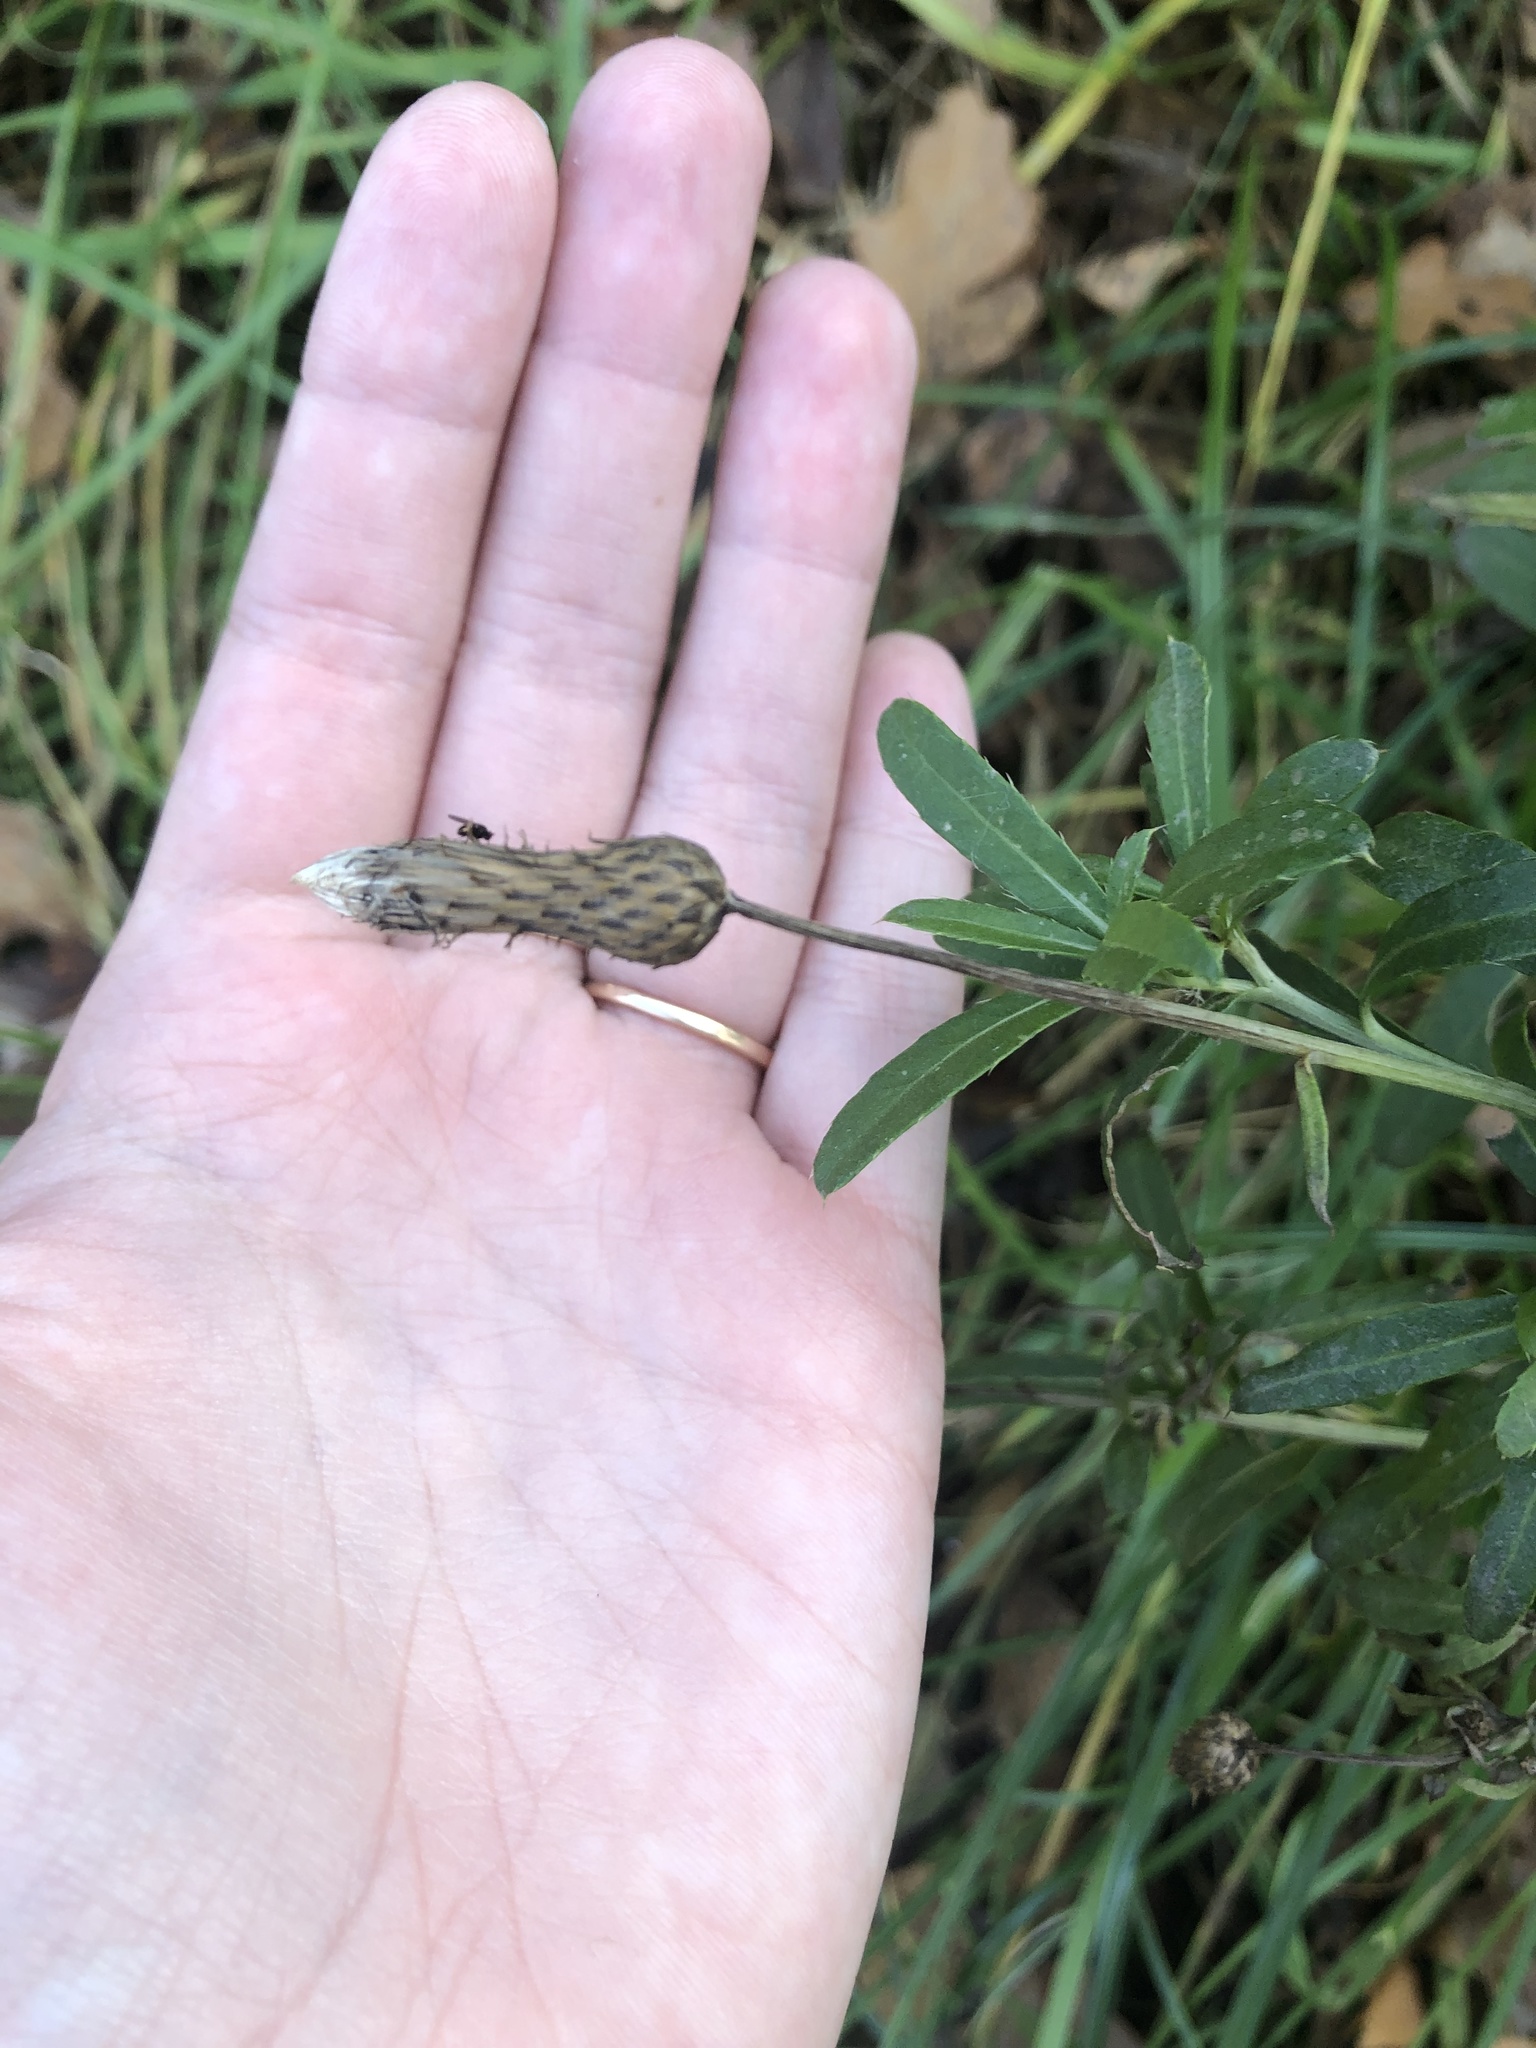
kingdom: Plantae
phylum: Tracheophyta
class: Magnoliopsida
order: Asterales
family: Asteraceae
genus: Cirsium
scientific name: Cirsium arvense
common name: Creeping thistle
